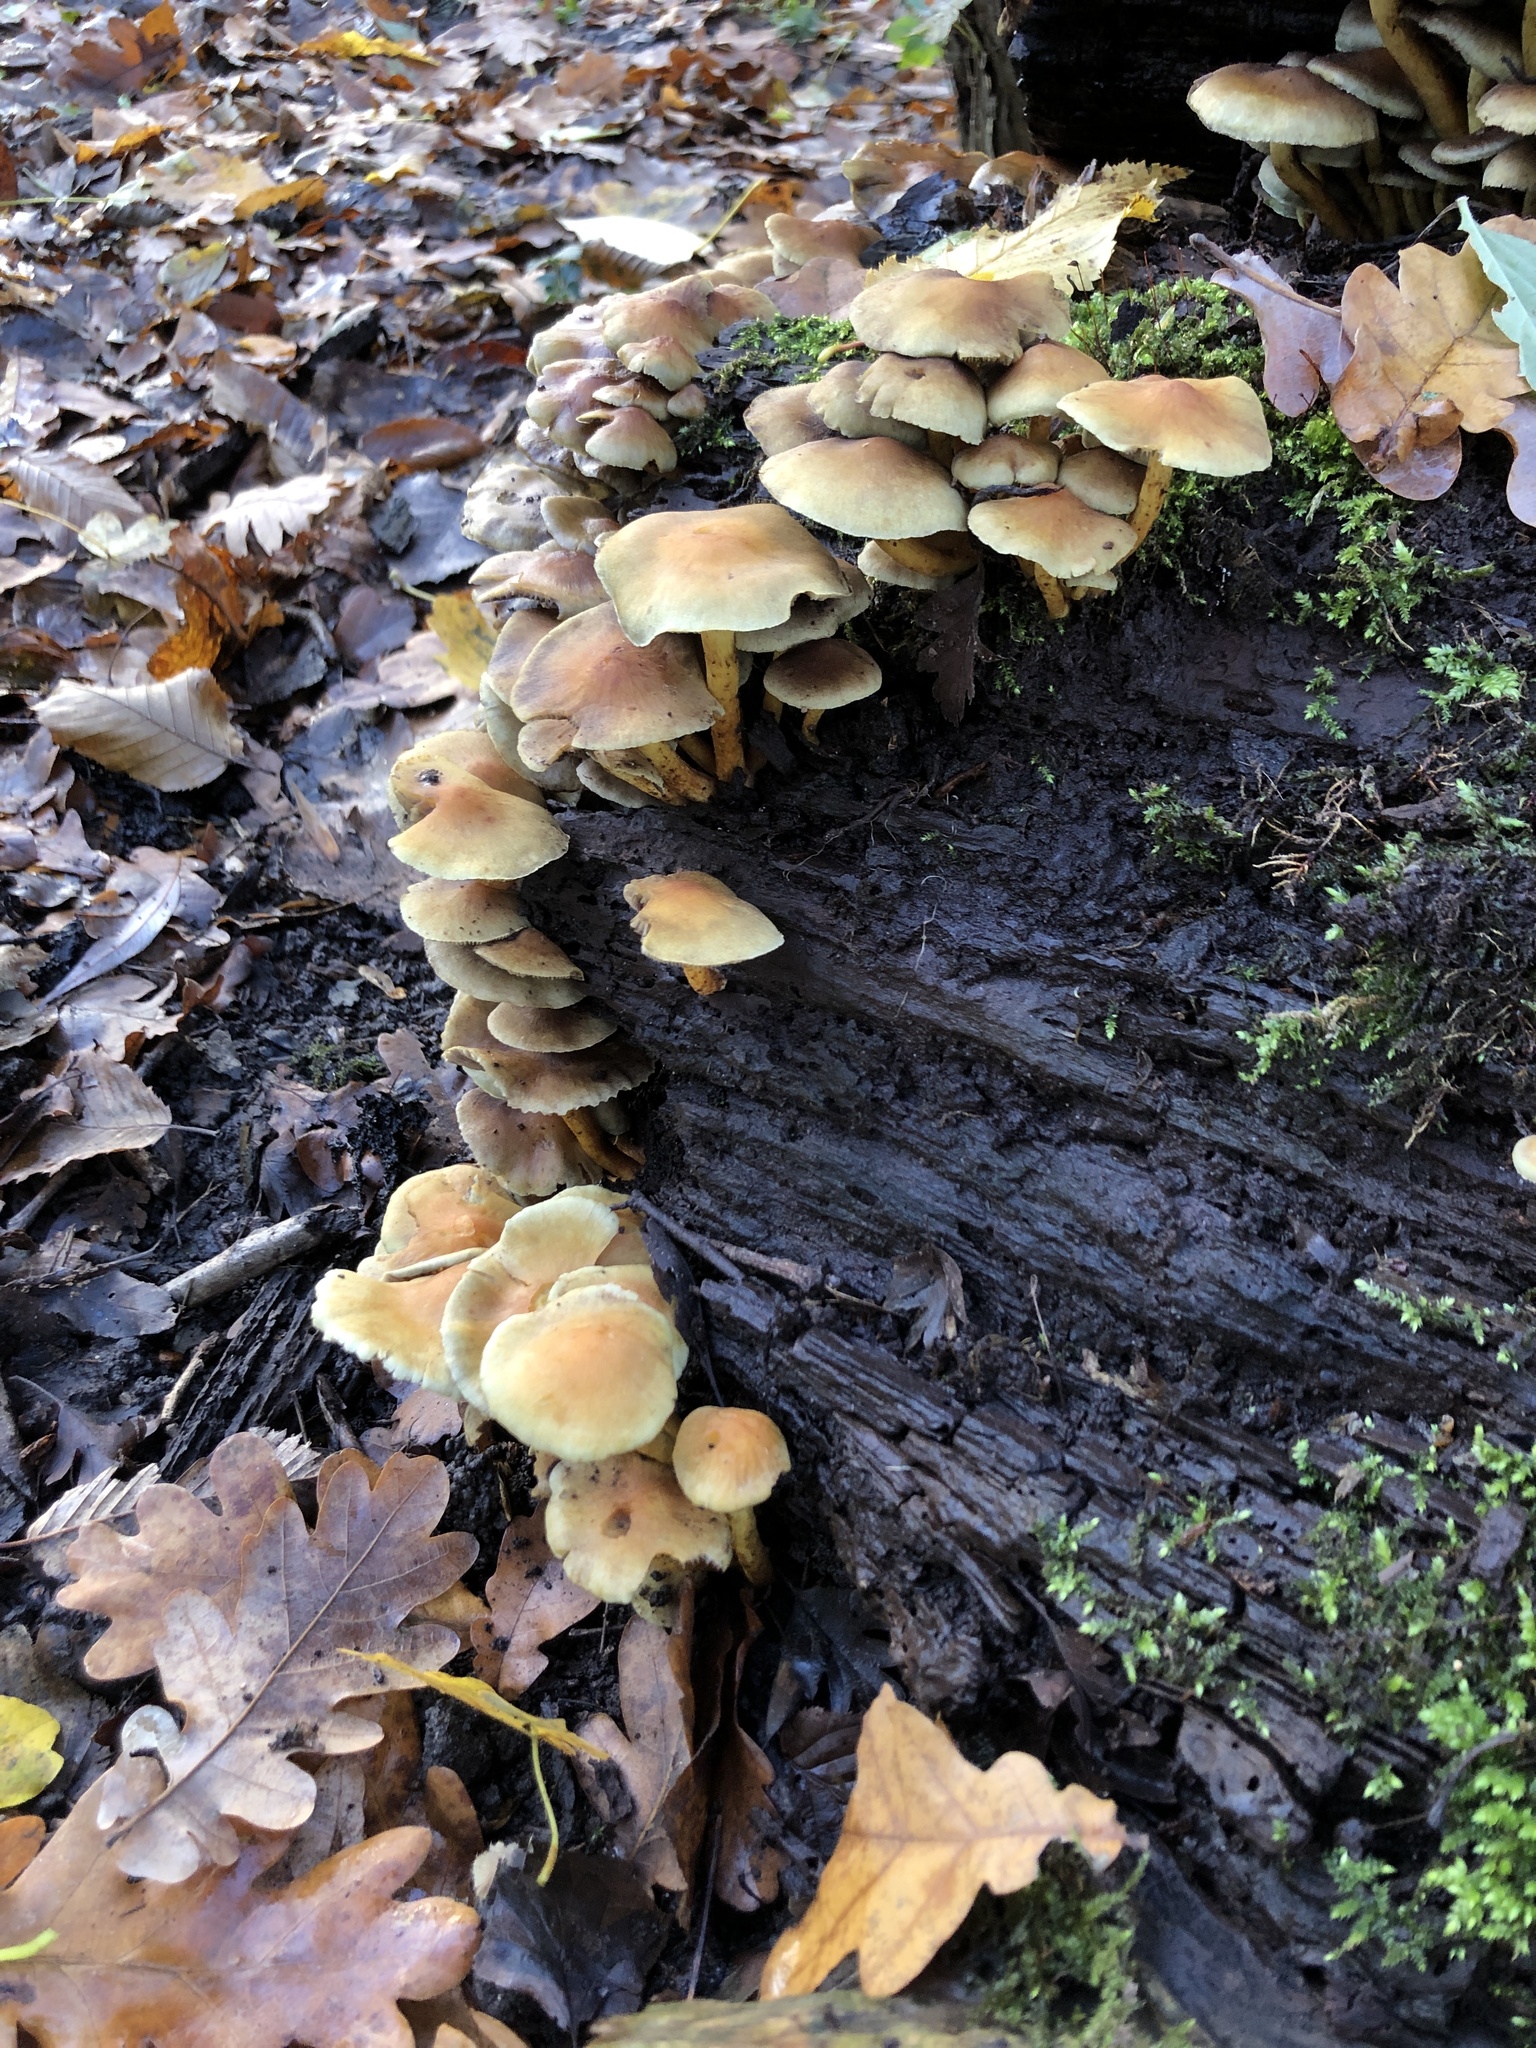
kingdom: Fungi
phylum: Basidiomycota
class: Agaricomycetes
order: Agaricales
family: Strophariaceae
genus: Hypholoma
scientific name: Hypholoma fasciculare
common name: Sulphur tuft
